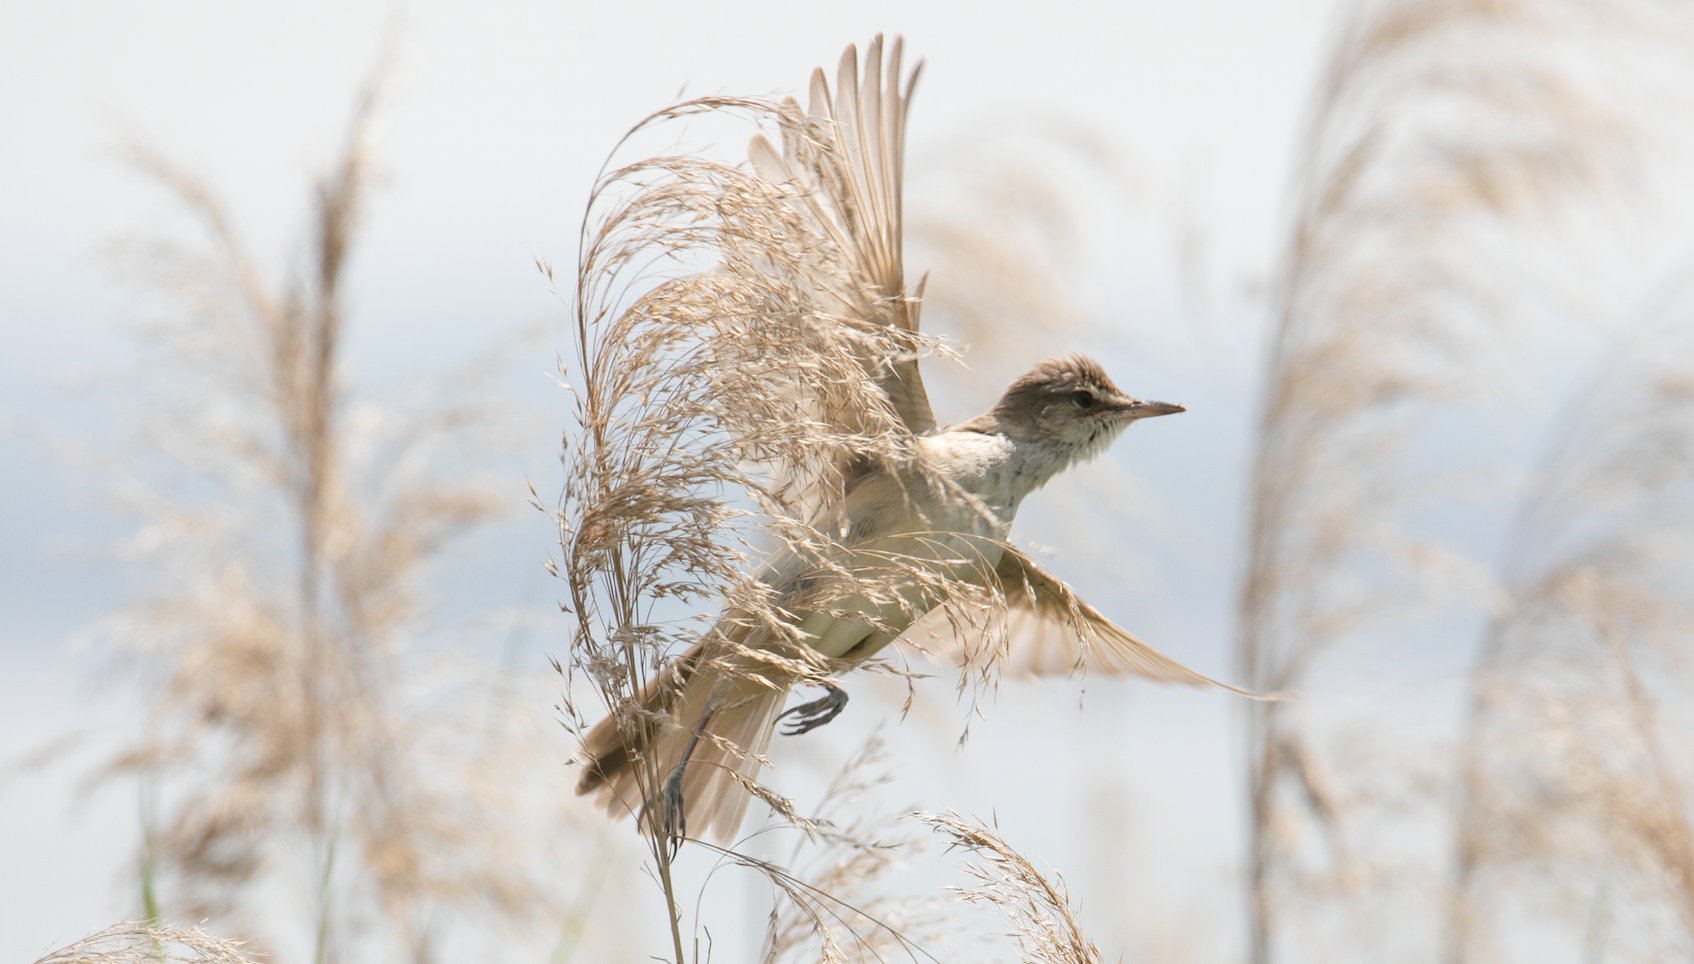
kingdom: Animalia
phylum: Chordata
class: Aves
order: Passeriformes
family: Acrocephalidae
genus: Acrocephalus
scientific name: Acrocephalus arundinaceus
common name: Great reed warbler
